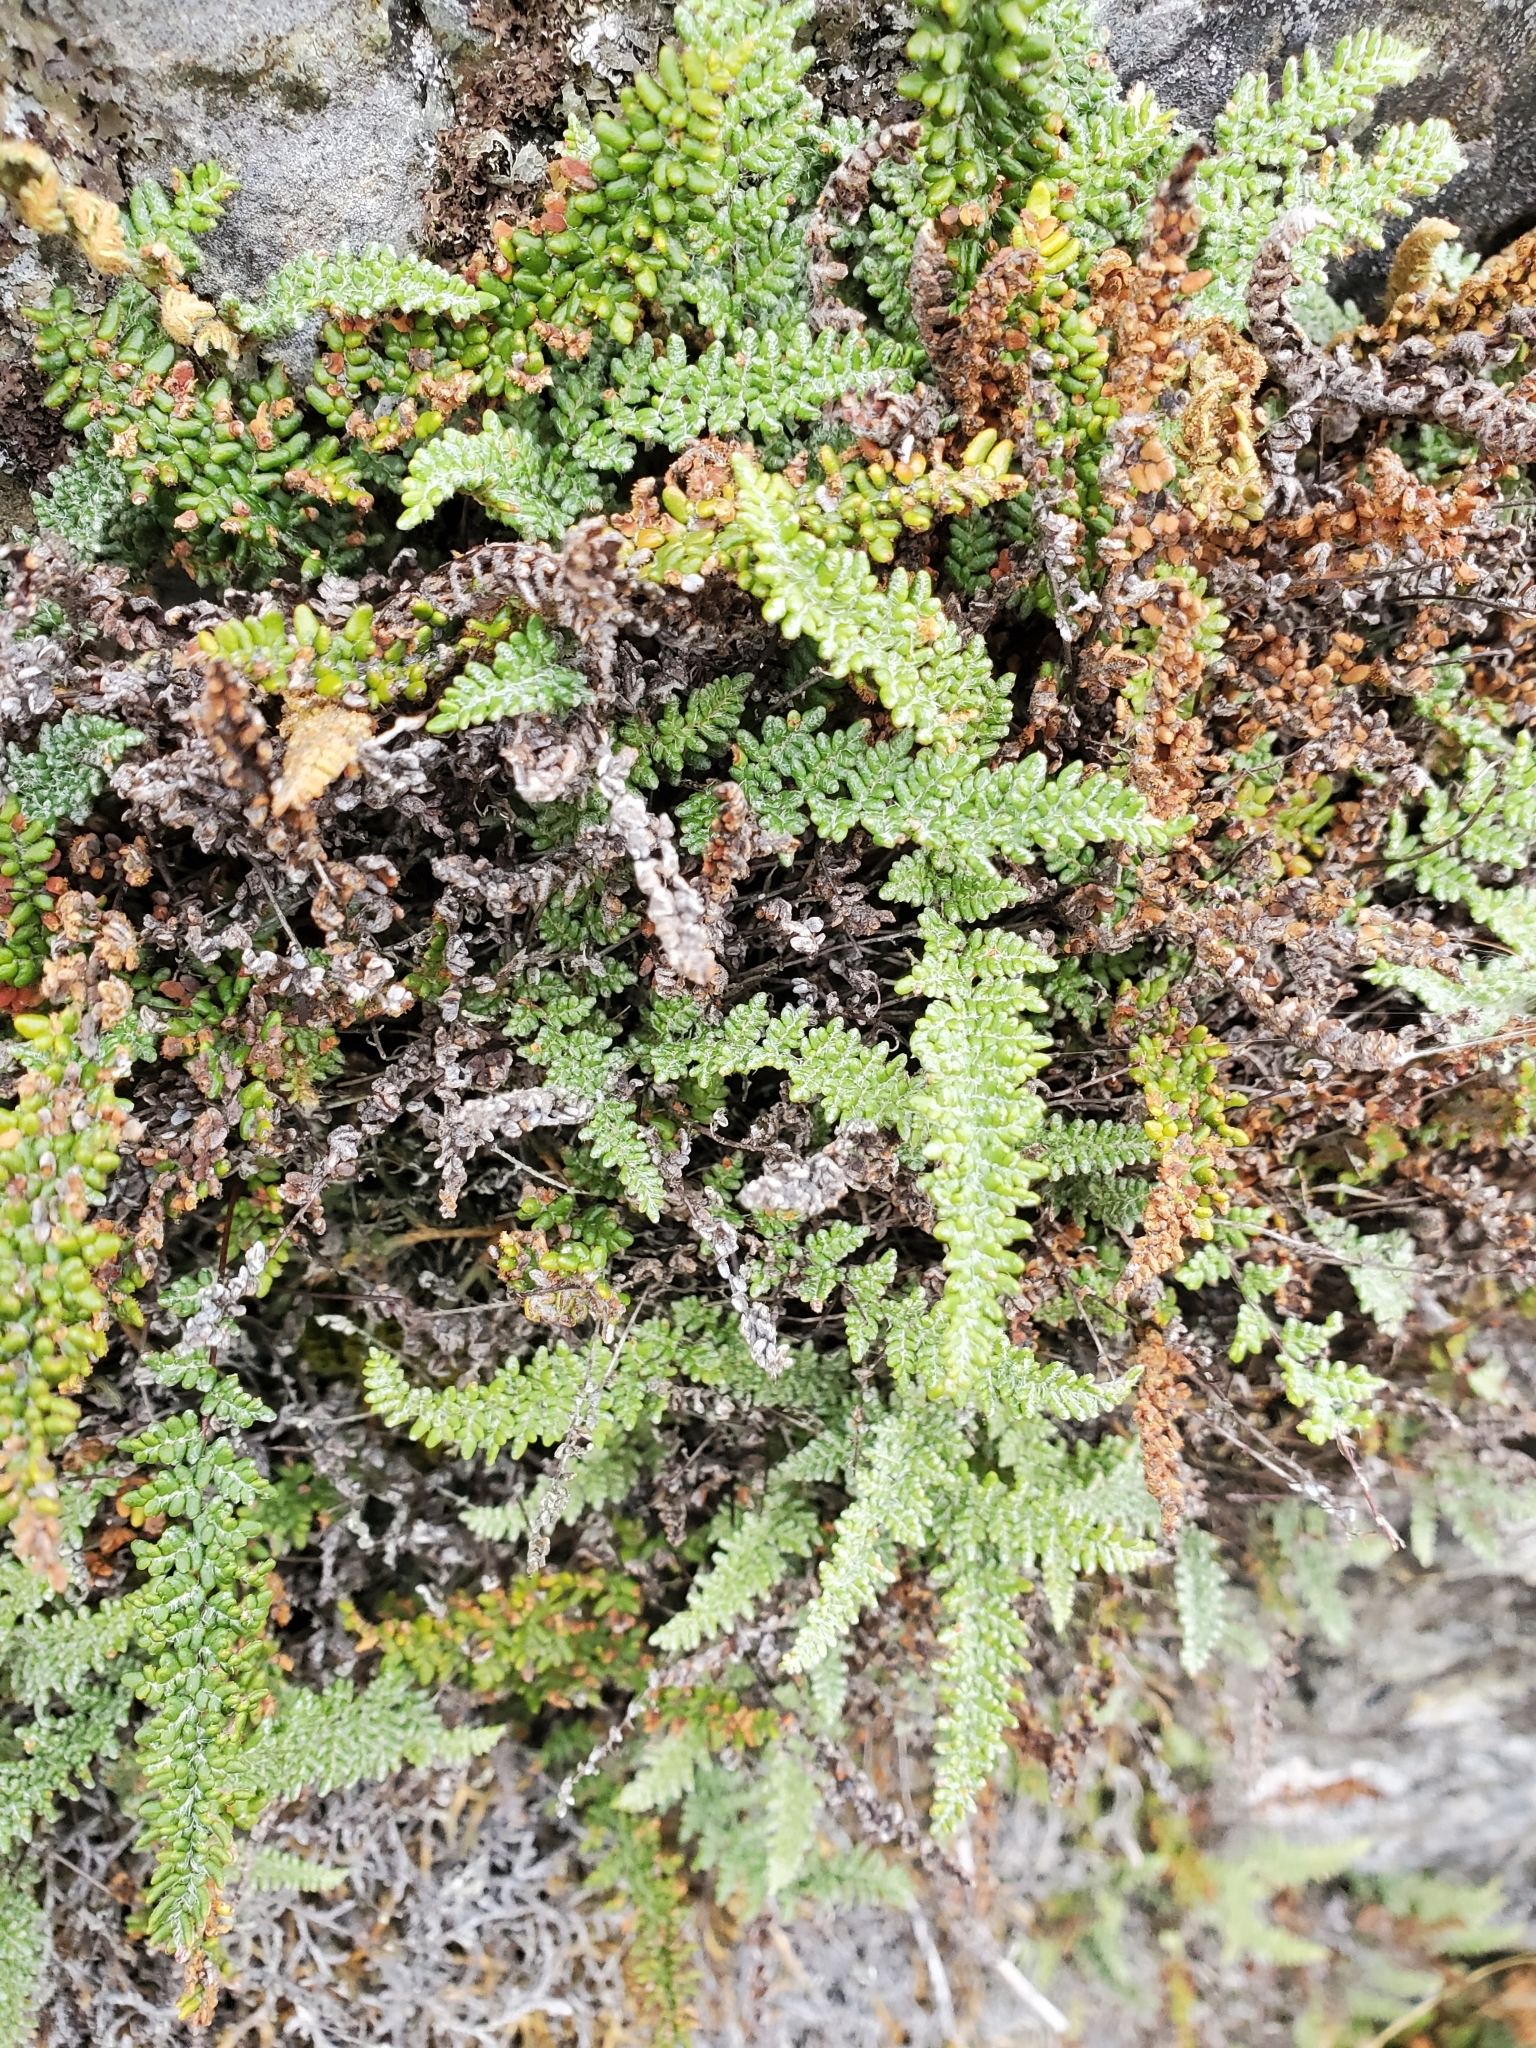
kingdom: Plantae
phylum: Tracheophyta
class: Polypodiopsida
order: Polypodiales
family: Pteridaceae
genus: Myriopteris
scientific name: Myriopteris gracillima
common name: Lace fern
